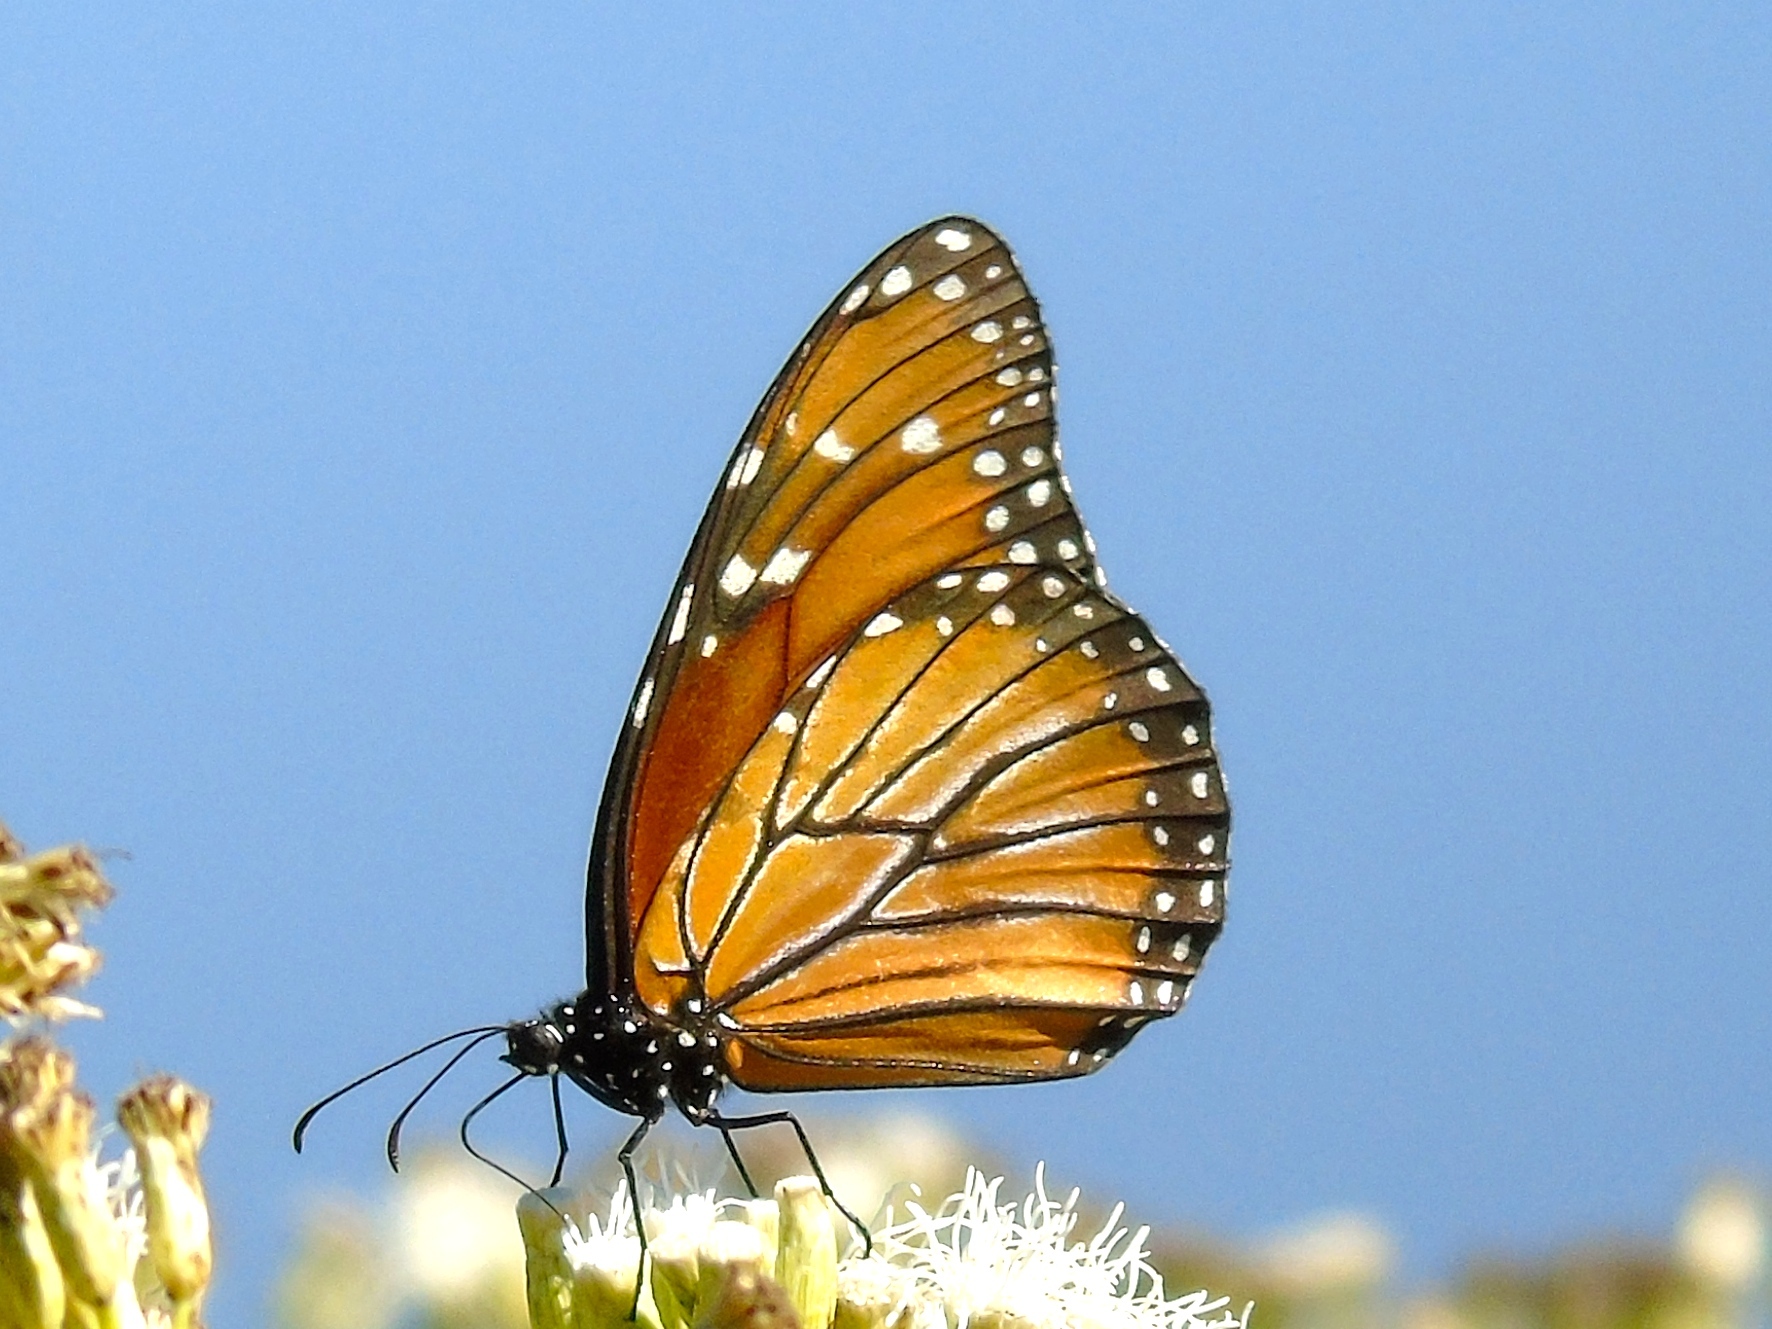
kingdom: Animalia
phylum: Arthropoda
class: Insecta
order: Lepidoptera
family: Nymphalidae
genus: Danaus
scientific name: Danaus eresimus
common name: Soldier
